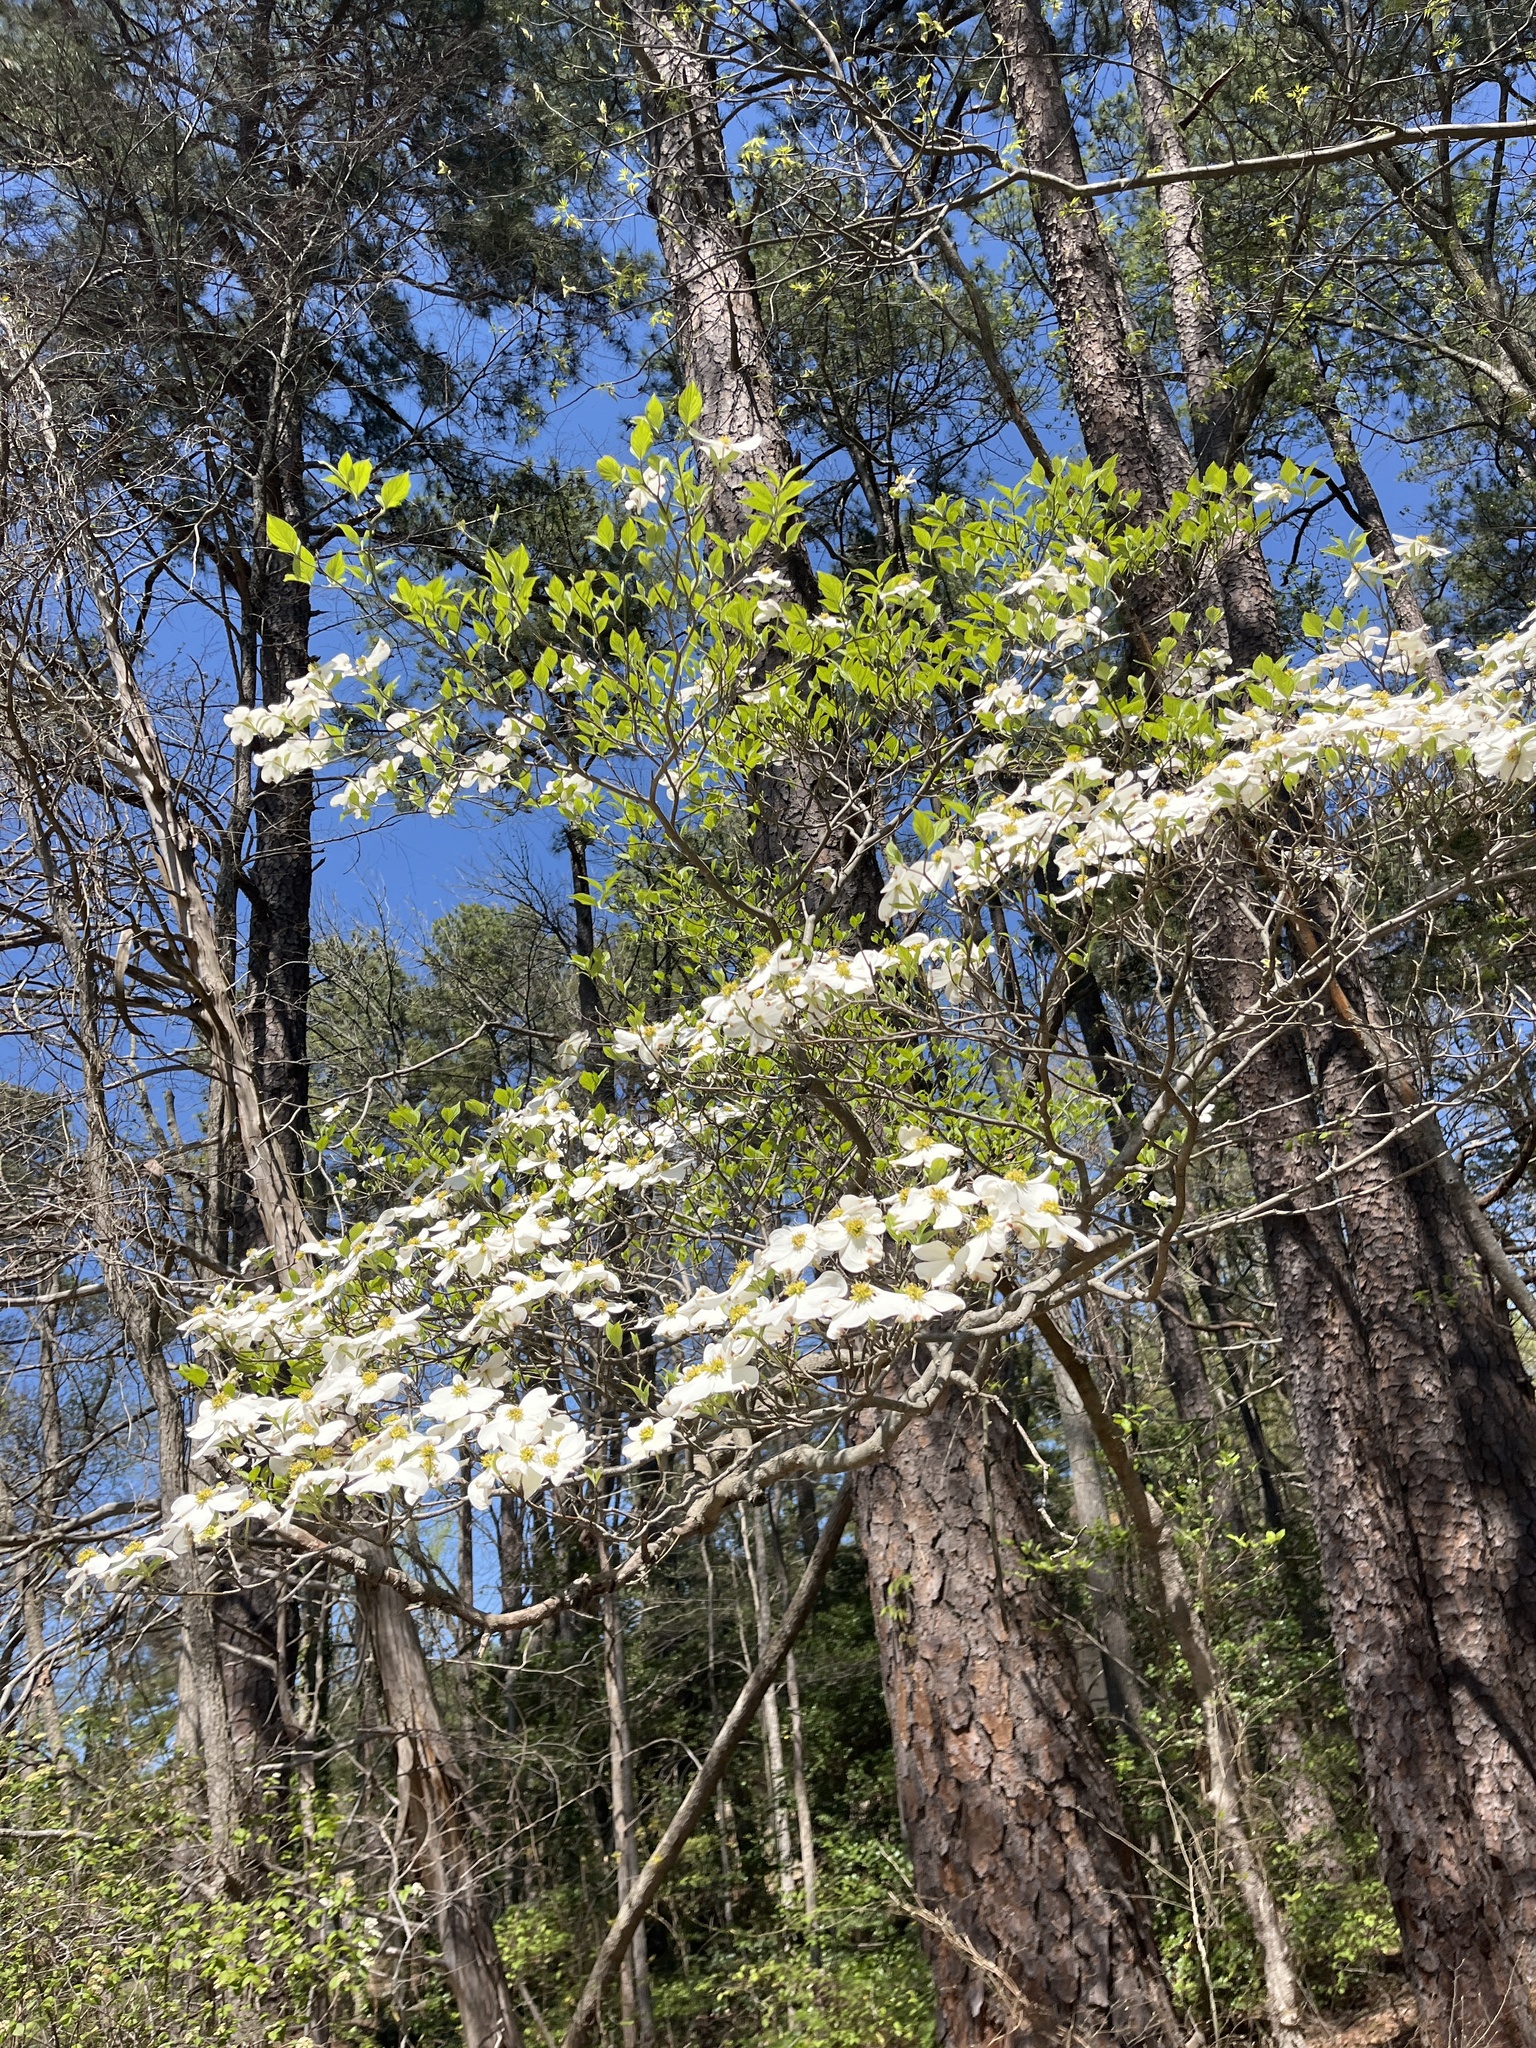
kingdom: Plantae
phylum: Tracheophyta
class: Magnoliopsida
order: Cornales
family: Cornaceae
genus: Cornus
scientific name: Cornus florida
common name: Flowering dogwood
